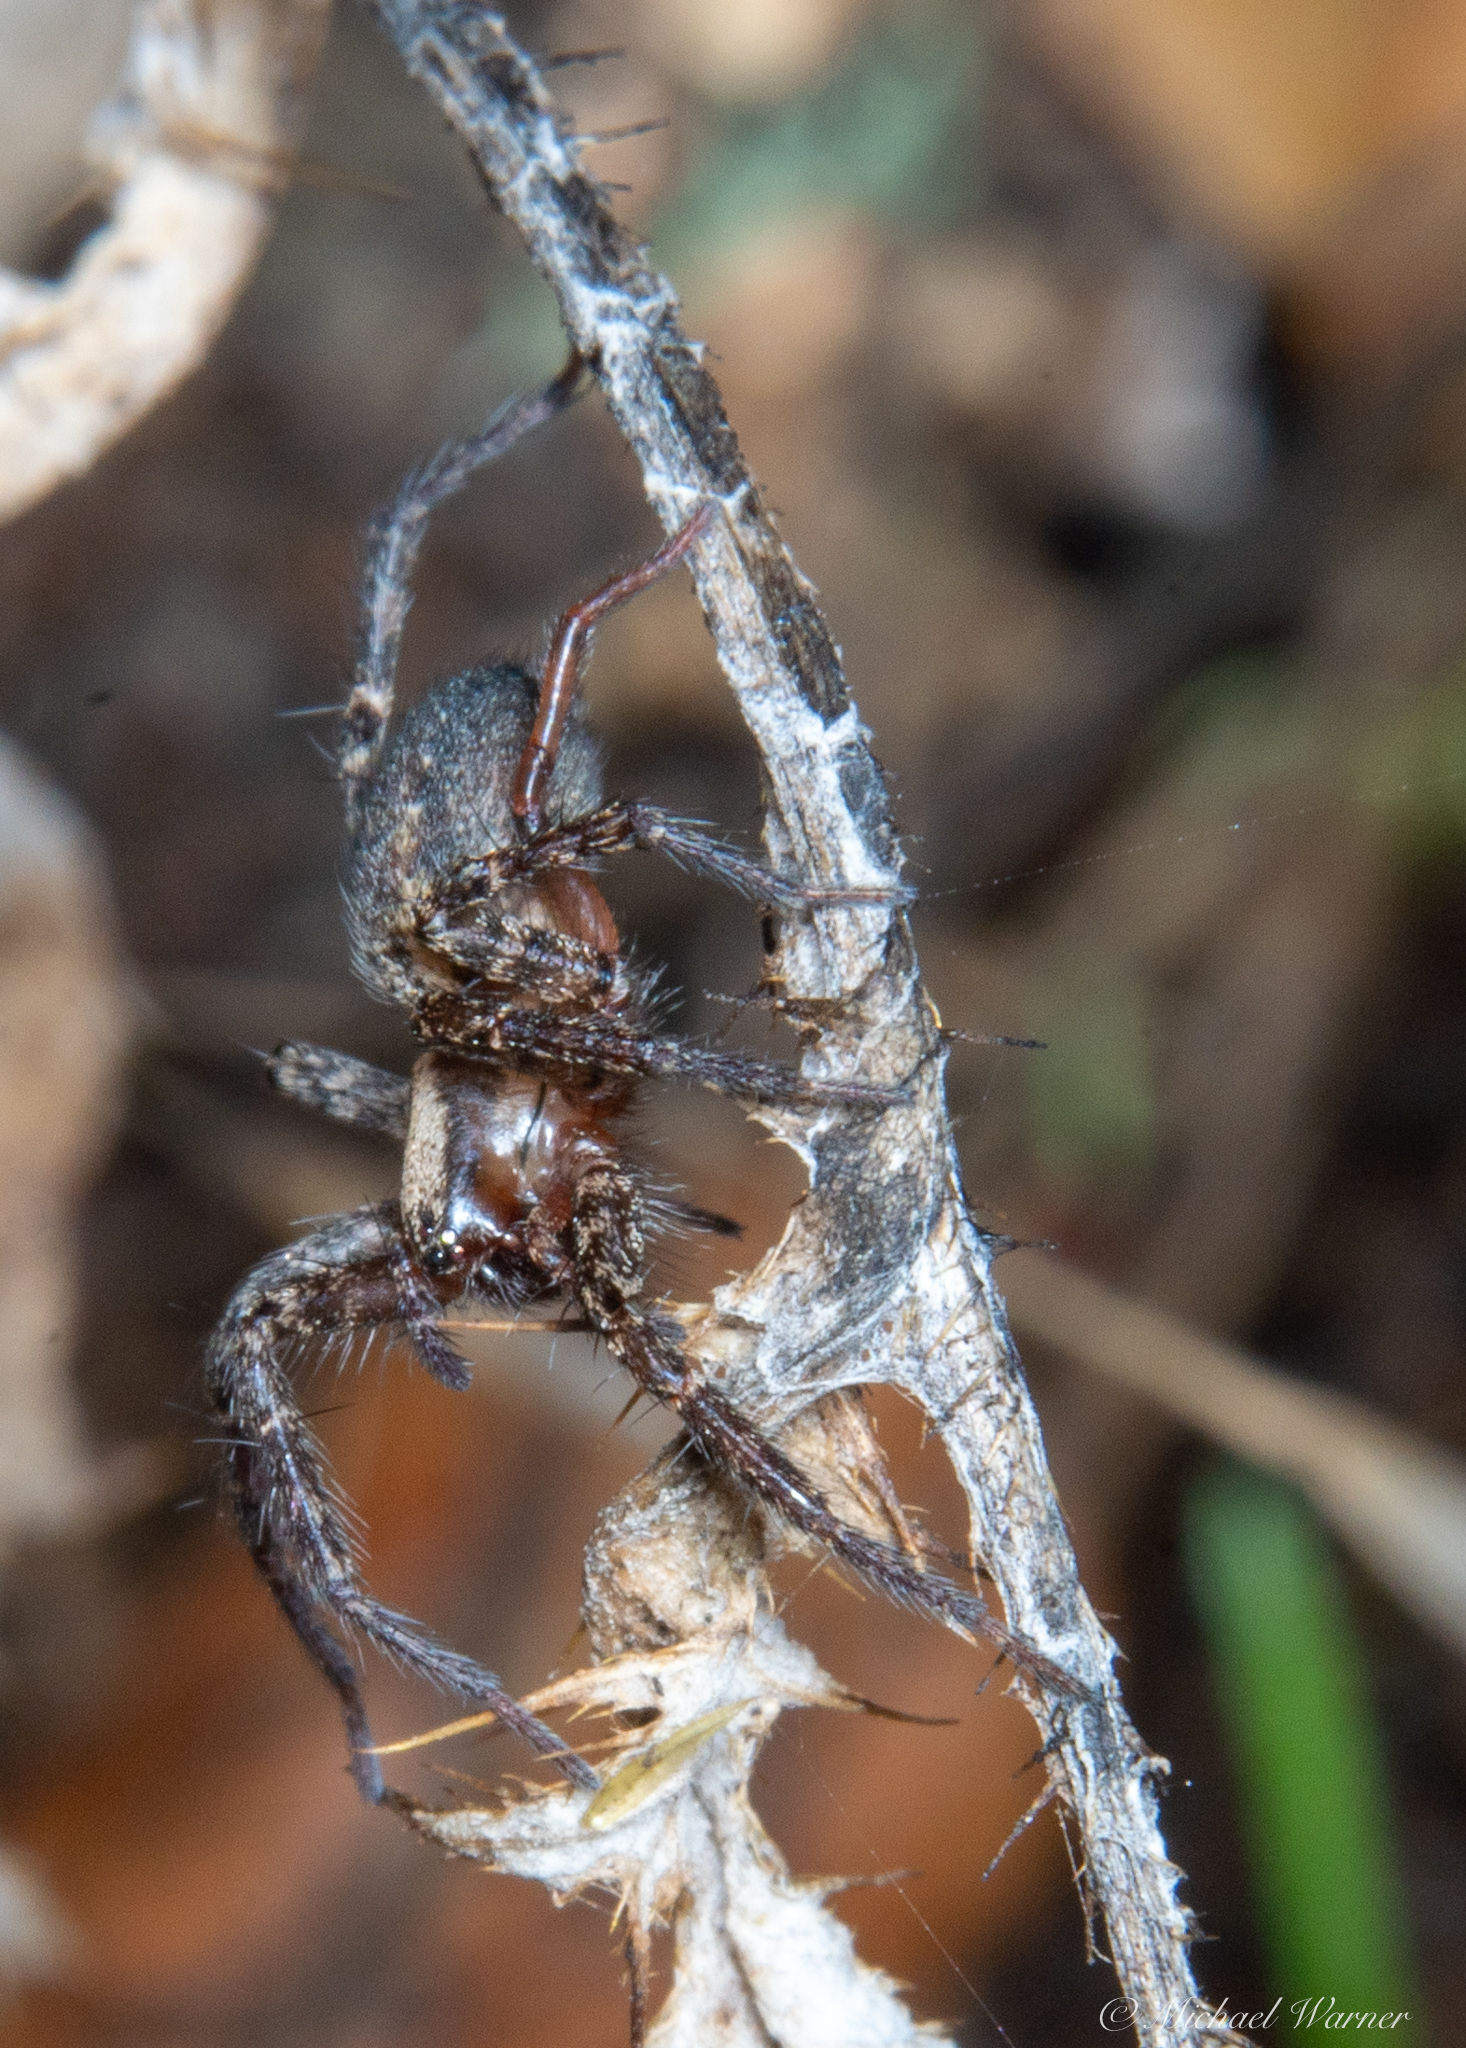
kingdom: Animalia
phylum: Arthropoda
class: Arachnida
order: Araneae
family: Agelenidae
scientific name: Agelenidae
